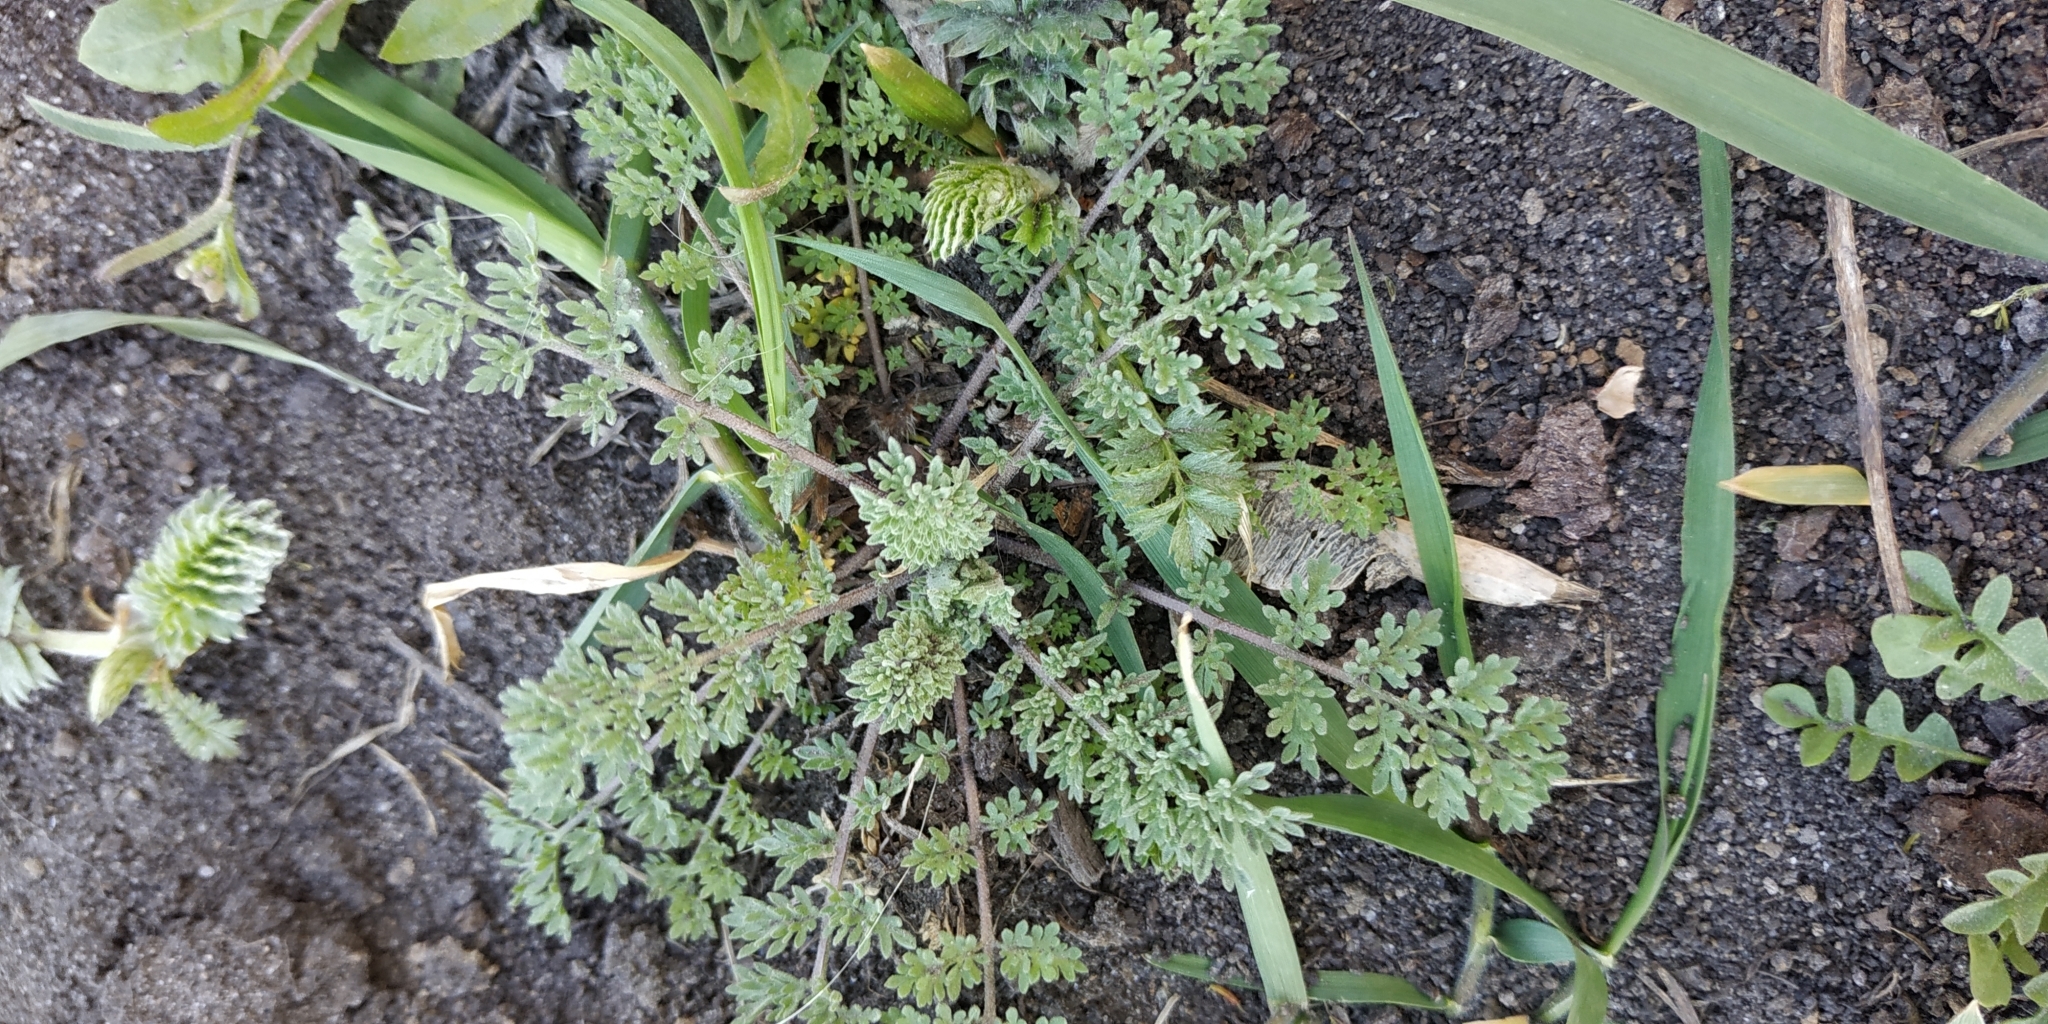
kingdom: Plantae
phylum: Tracheophyta
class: Magnoliopsida
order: Brassicales
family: Brassicaceae
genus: Descurainia
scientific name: Descurainia sophia
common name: Flixweed
